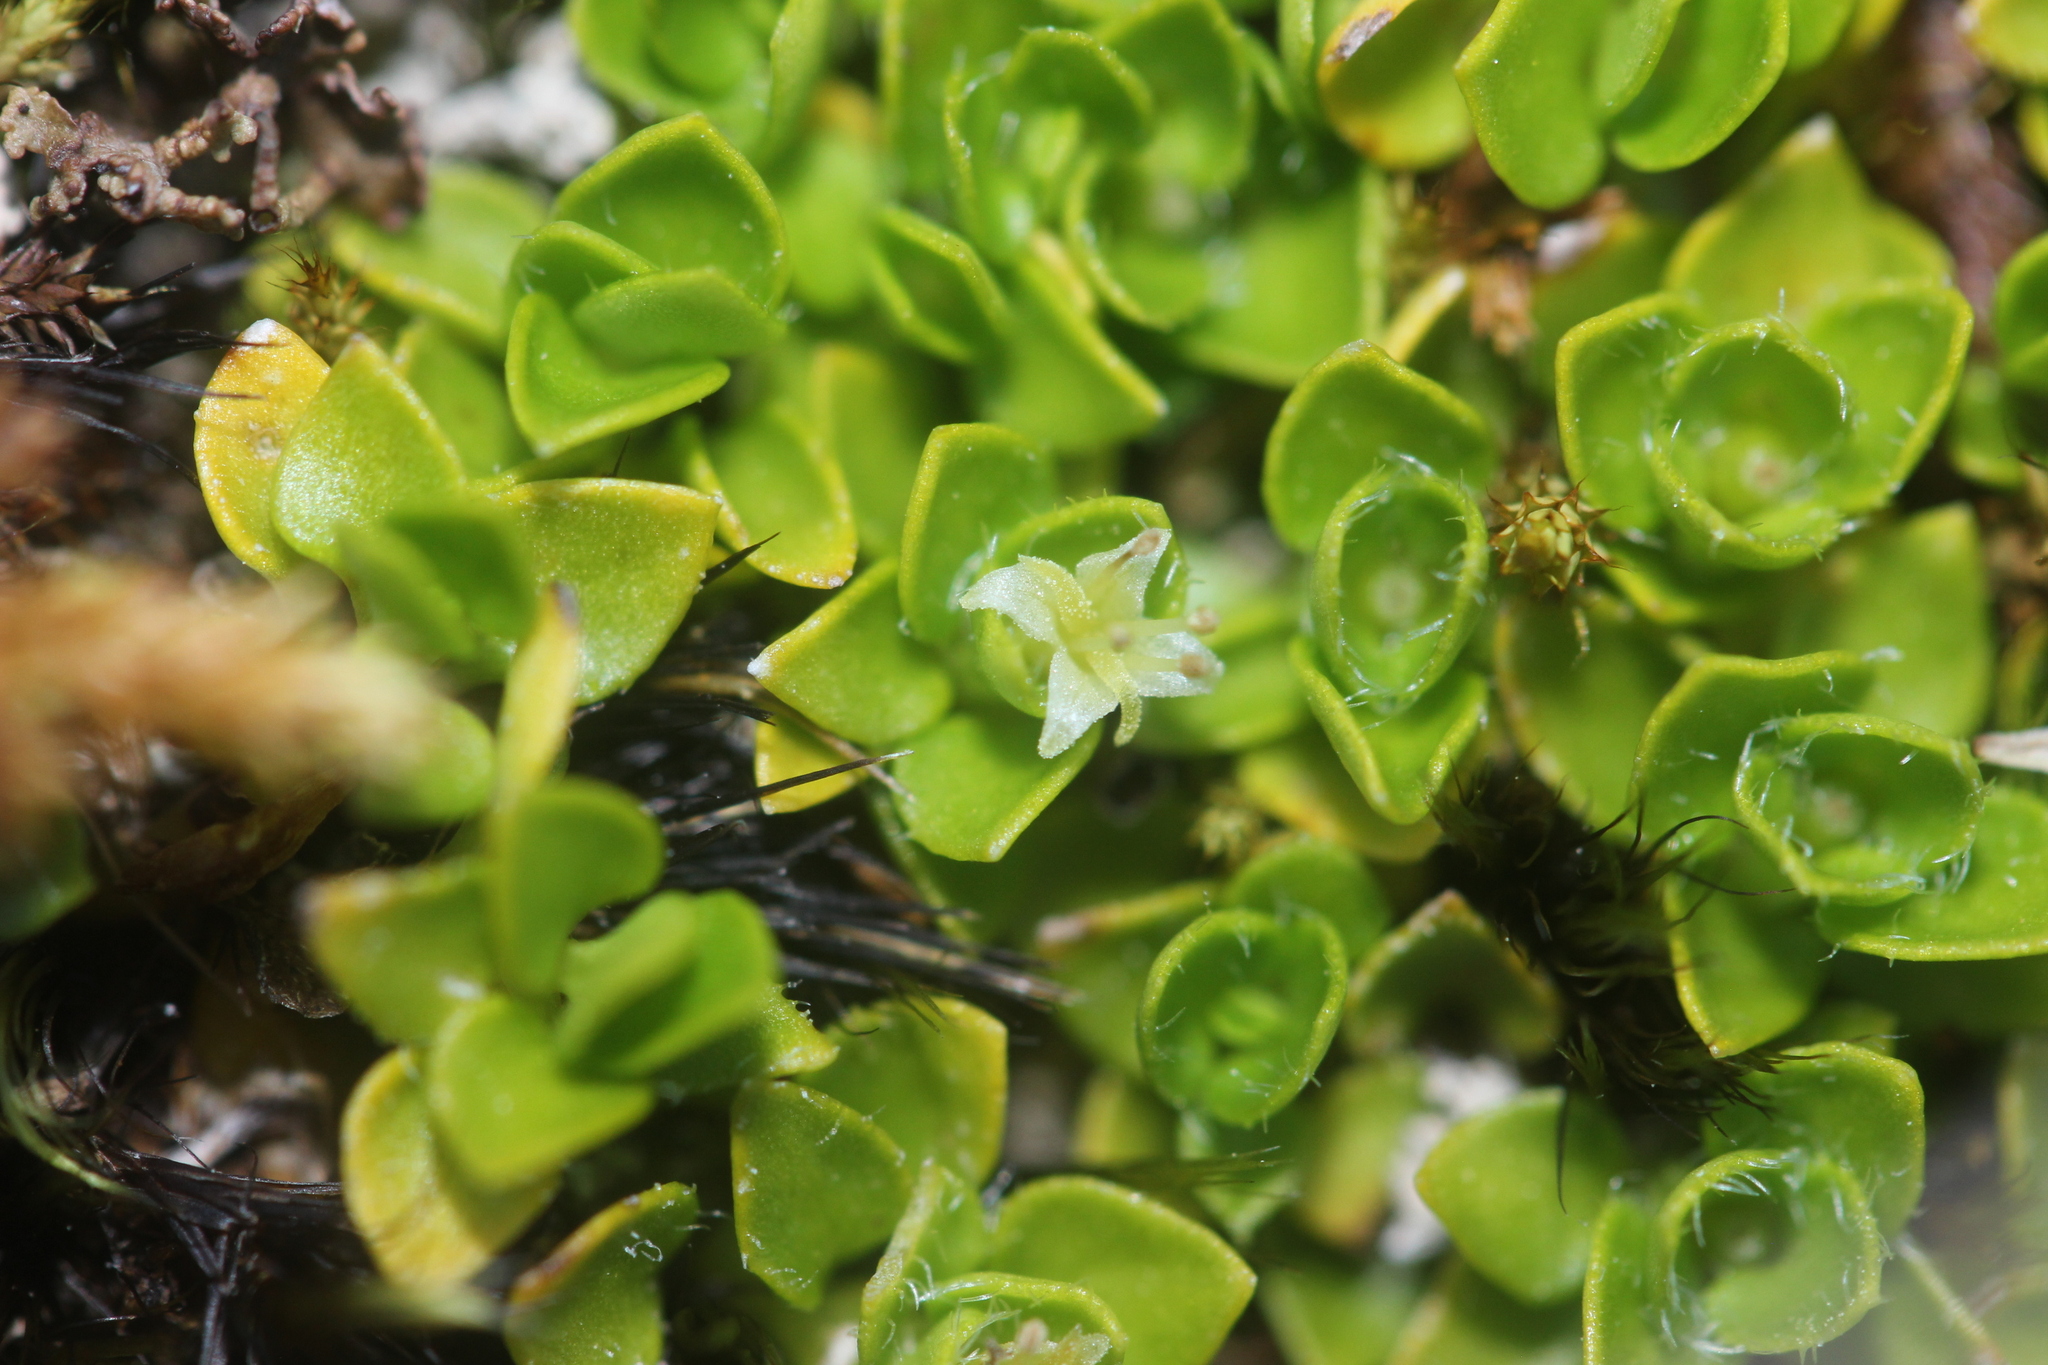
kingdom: Plantae
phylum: Tracheophyta
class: Magnoliopsida
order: Gentianales
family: Rubiaceae
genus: Nertera
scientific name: Nertera ciliata
